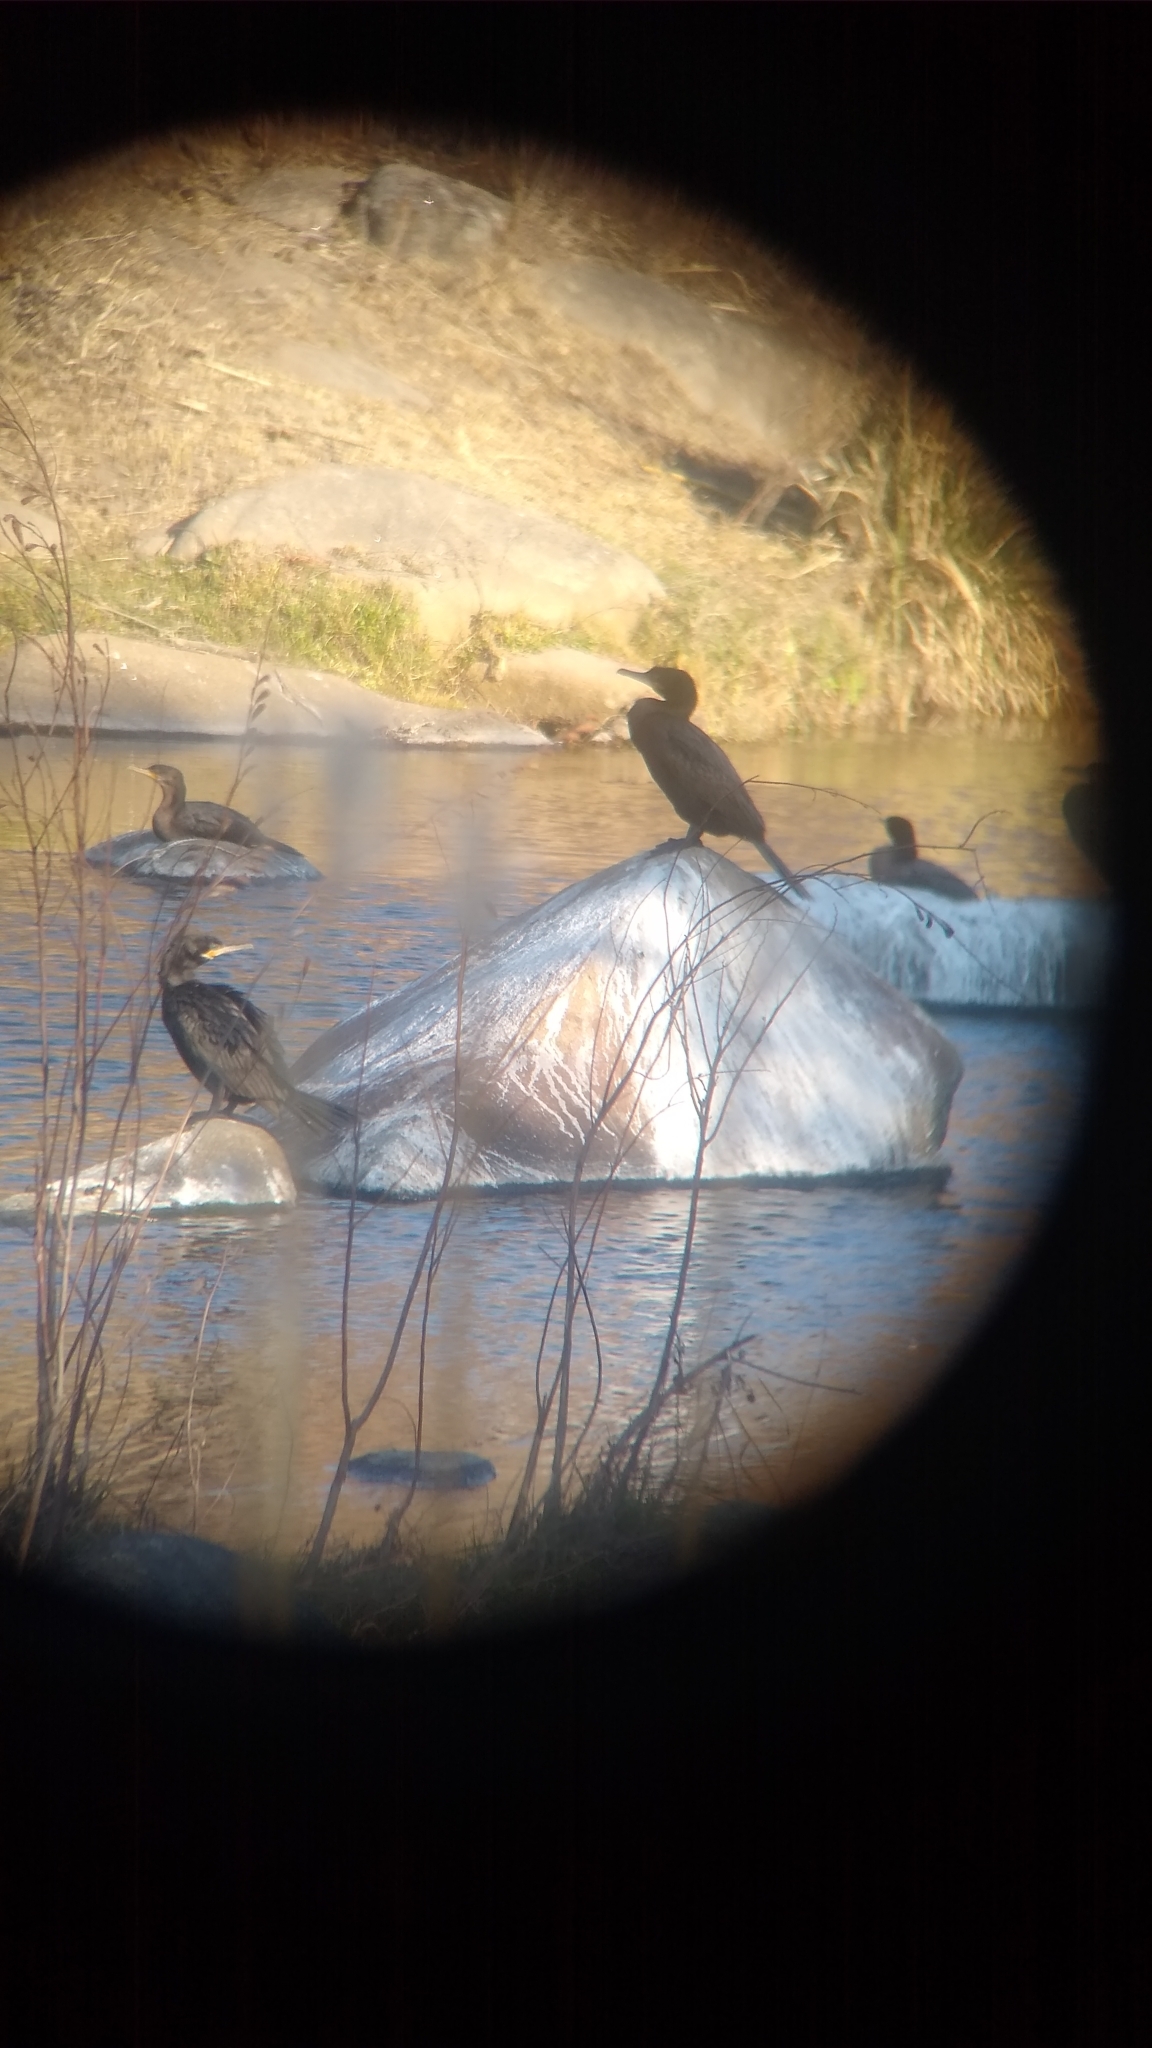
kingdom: Animalia
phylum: Chordata
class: Aves
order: Suliformes
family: Phalacrocoracidae
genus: Phalacrocorax
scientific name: Phalacrocorax brasilianus
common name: Neotropic cormorant
